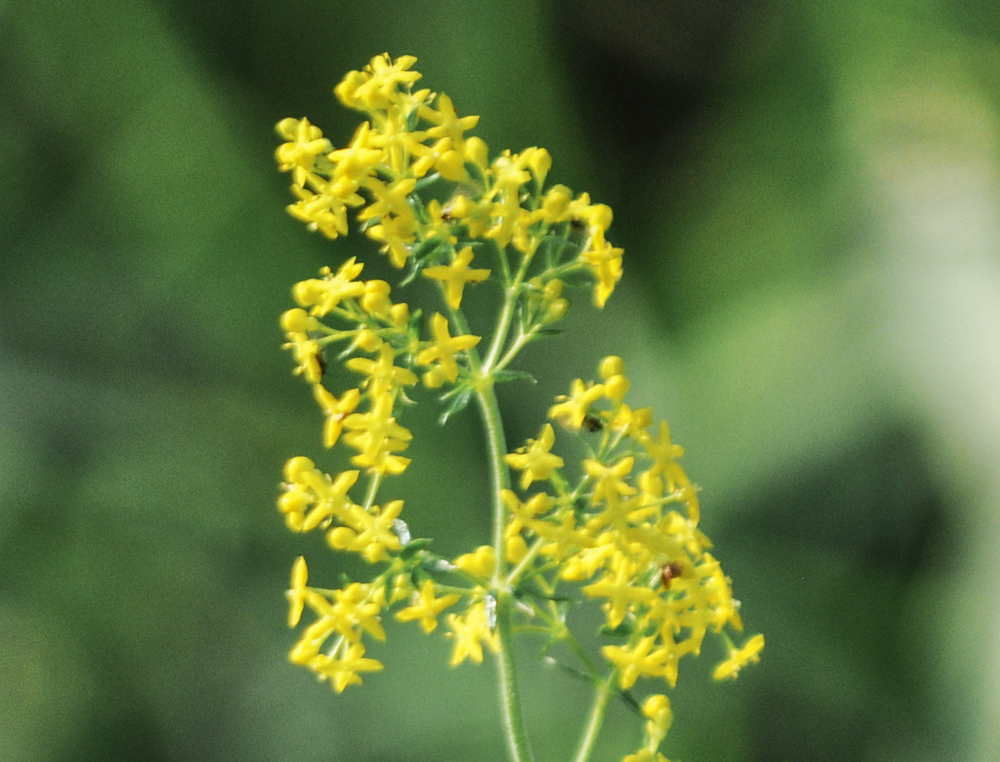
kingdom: Plantae
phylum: Tracheophyta
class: Magnoliopsida
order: Gentianales
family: Rubiaceae
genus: Galium
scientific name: Galium verum
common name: Lady's bedstraw
